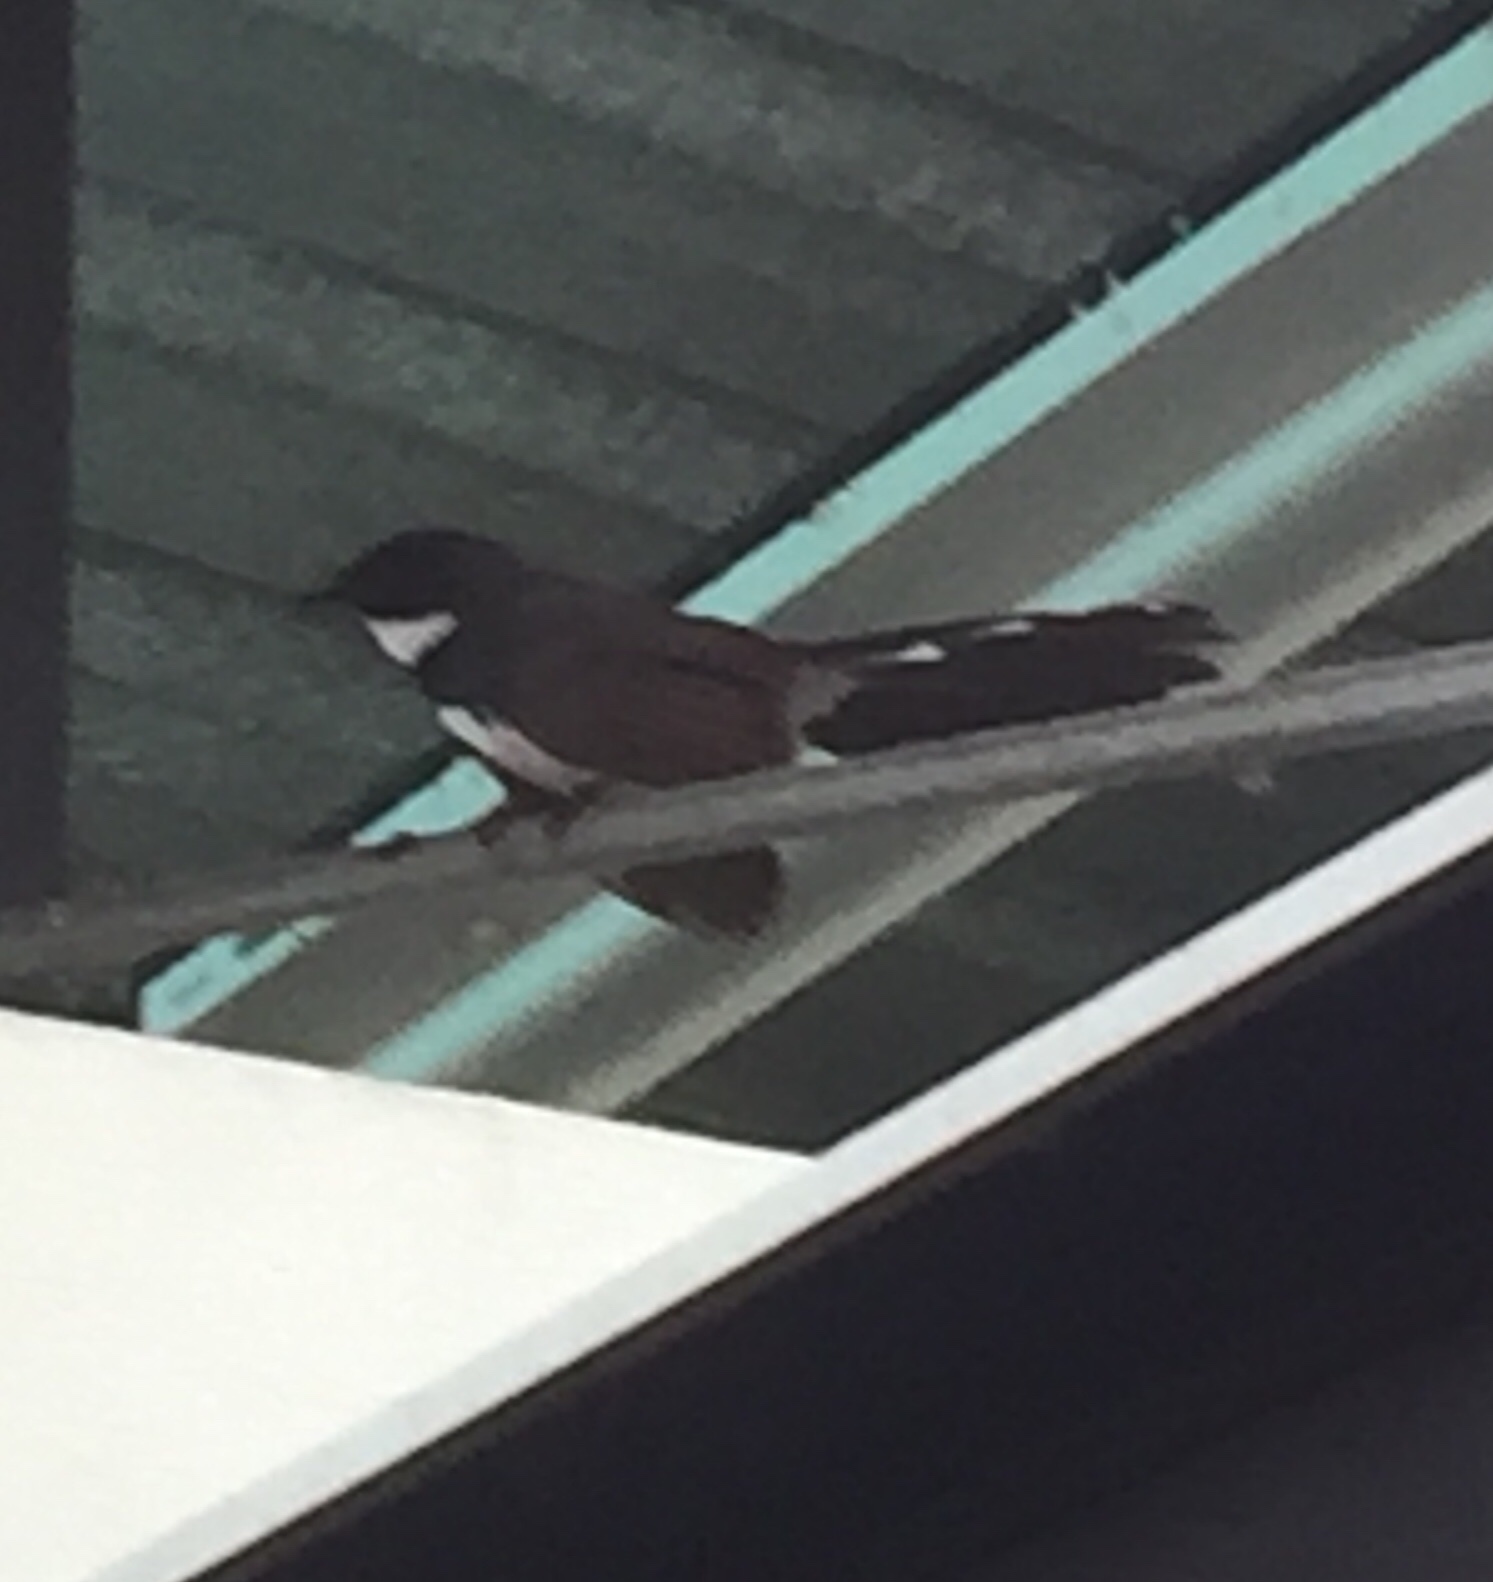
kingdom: Animalia
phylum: Chordata
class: Aves
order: Passeriformes
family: Rhipiduridae
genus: Rhipidura
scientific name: Rhipidura javanica
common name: Pied fantail
